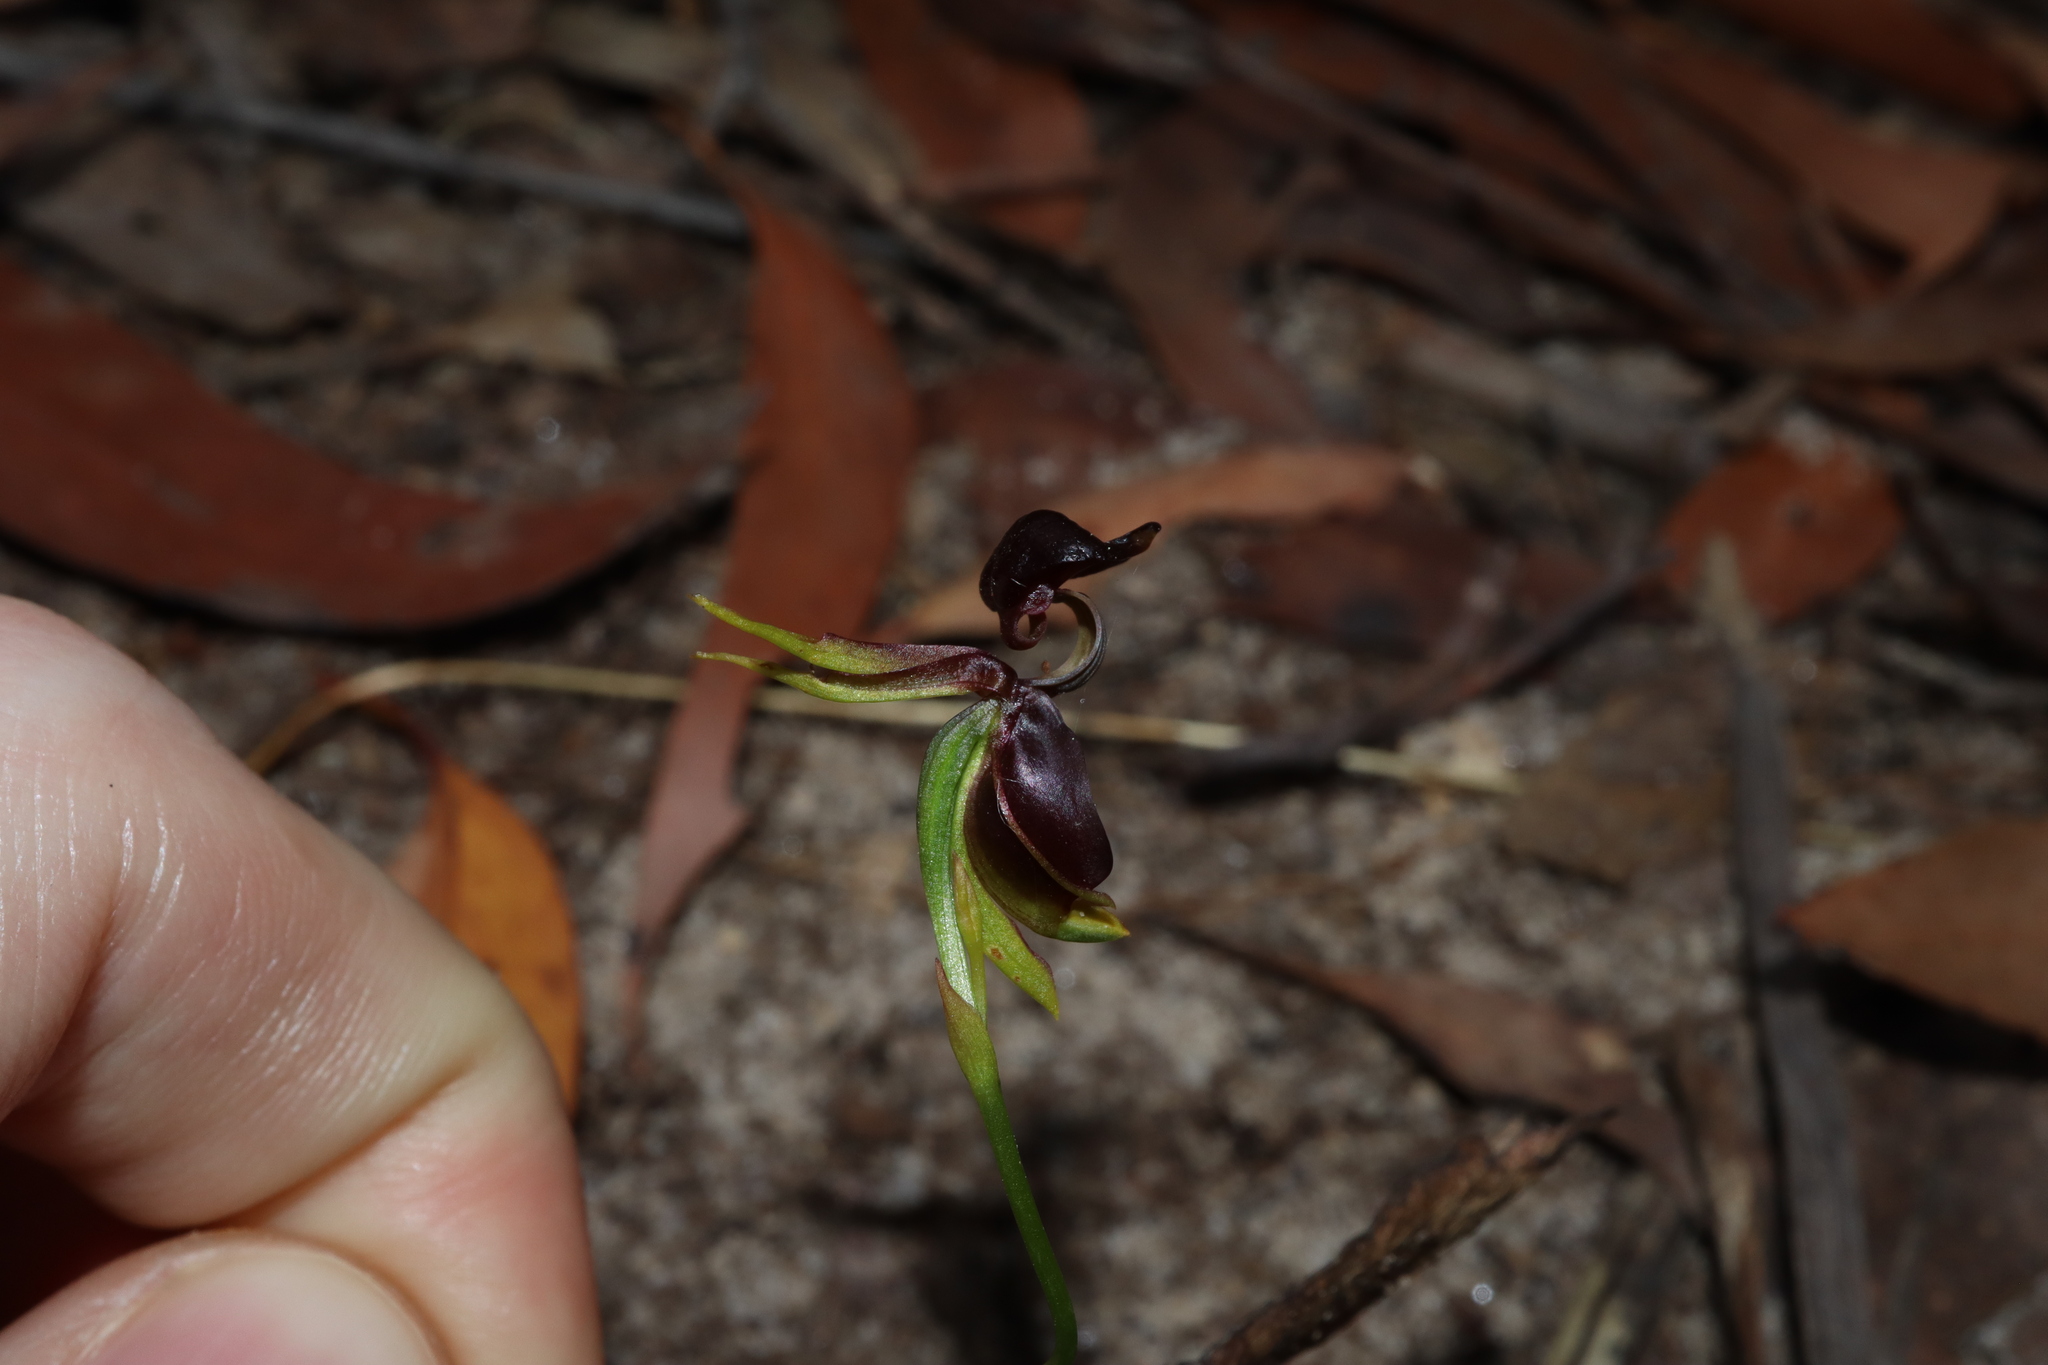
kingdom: Plantae
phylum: Tracheophyta
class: Liliopsida
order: Asparagales
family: Orchidaceae
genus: Caleana
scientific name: Caleana major
